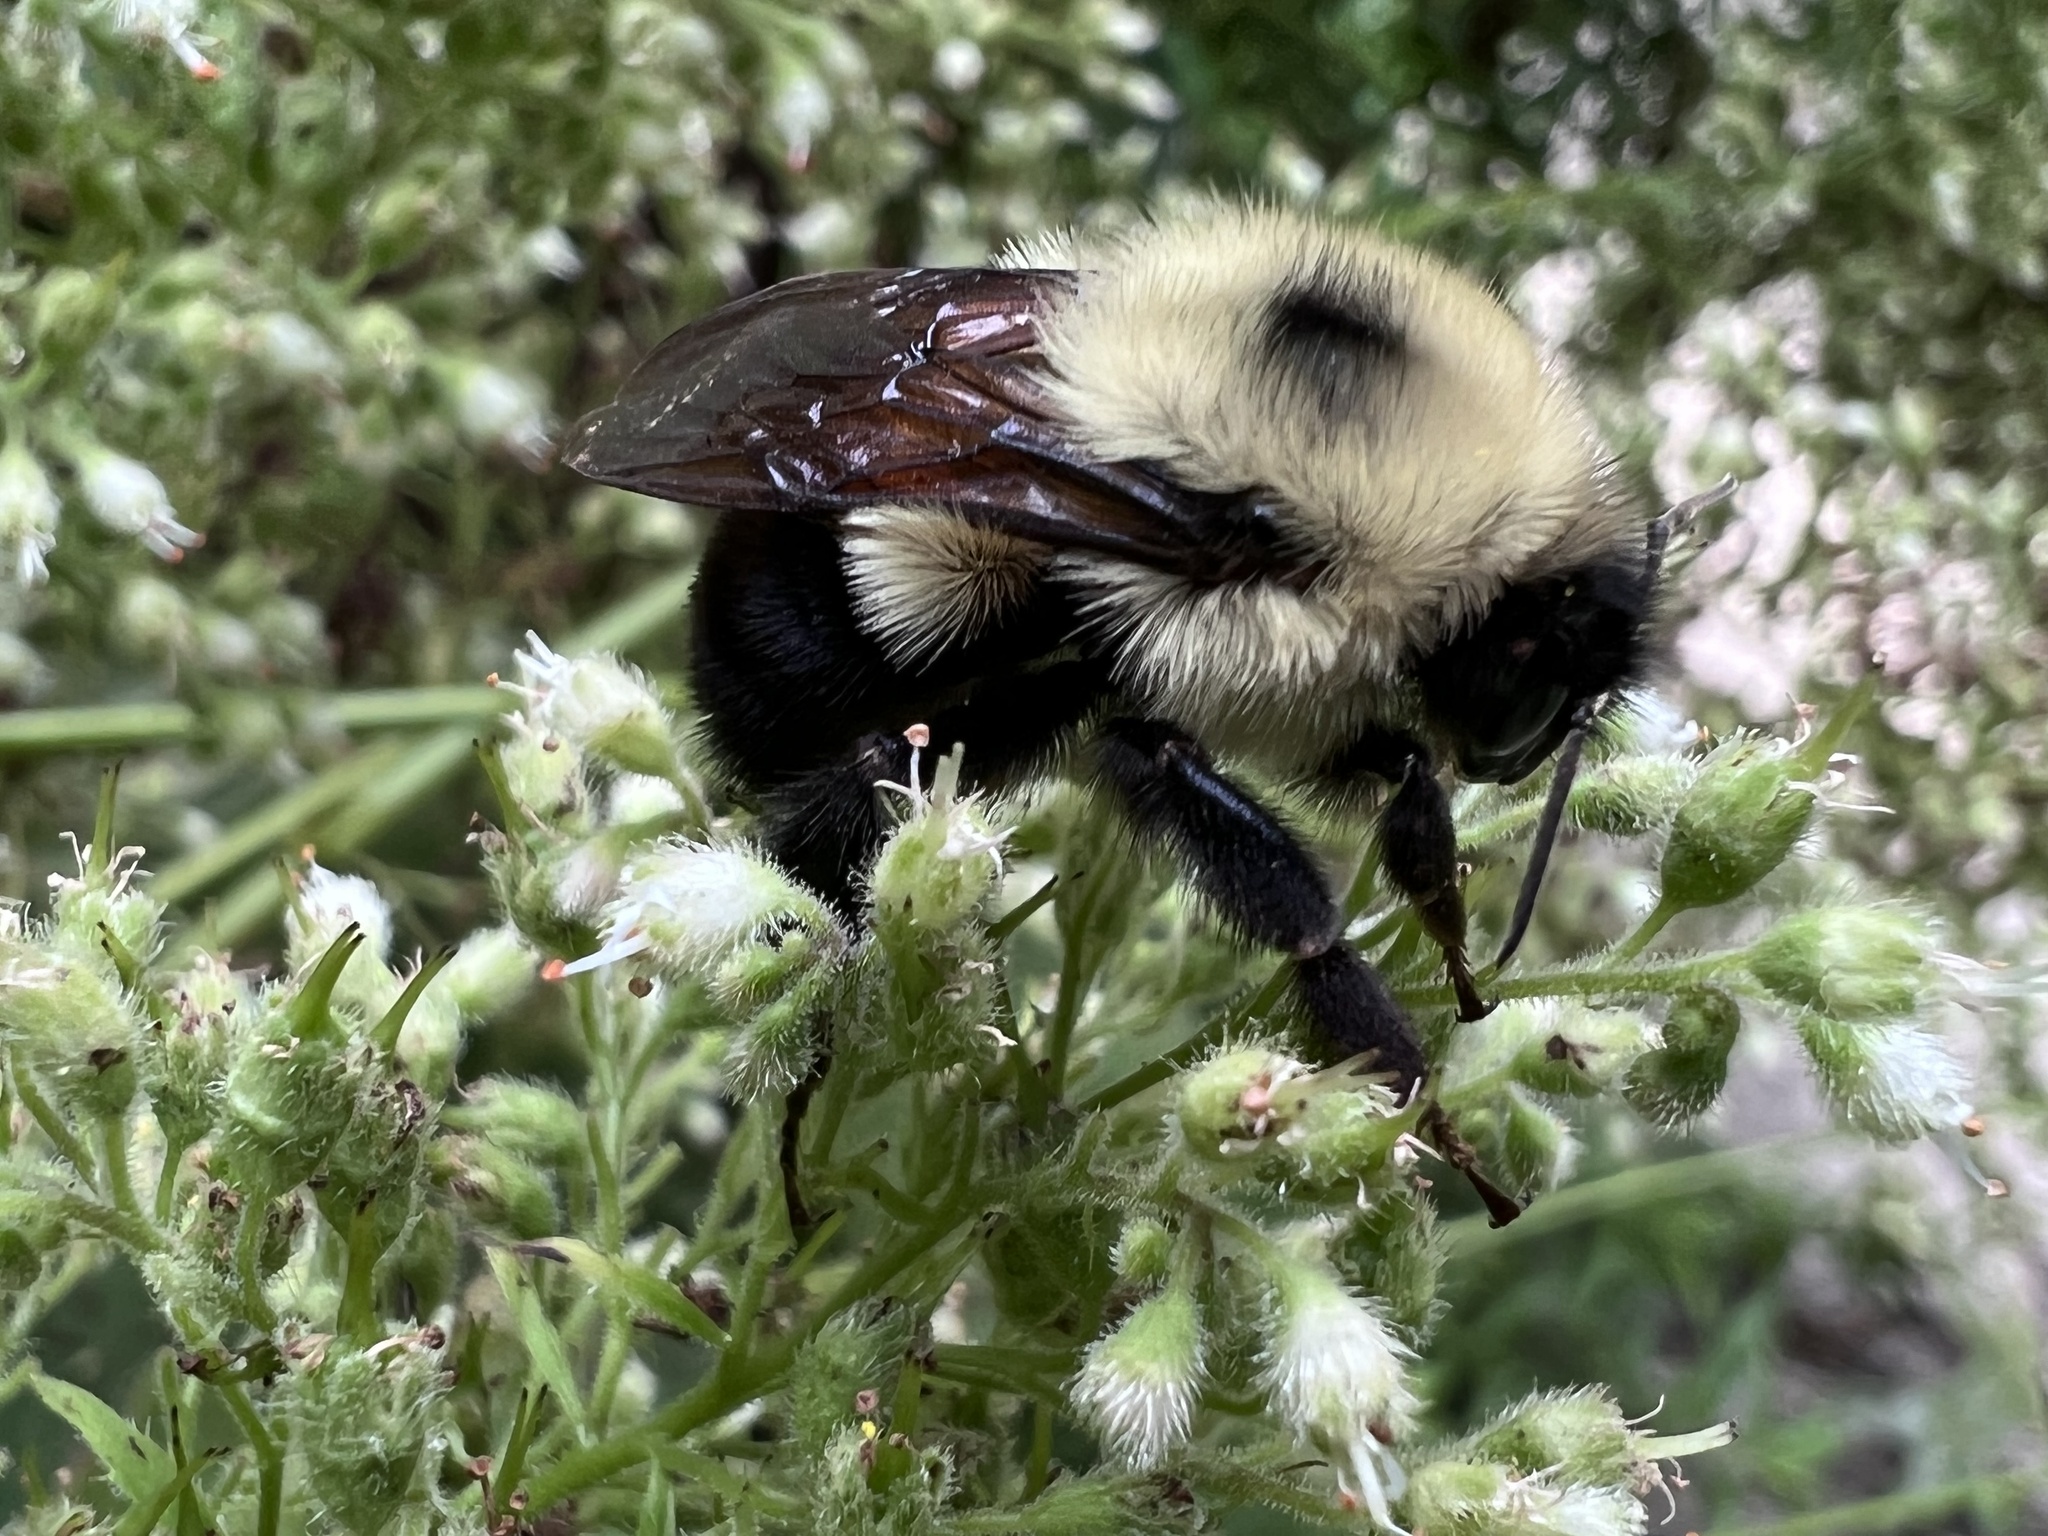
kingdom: Animalia
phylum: Arthropoda
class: Insecta
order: Hymenoptera
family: Apidae
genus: Bombus
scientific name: Bombus bimaculatus
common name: Two-spotted bumble bee
